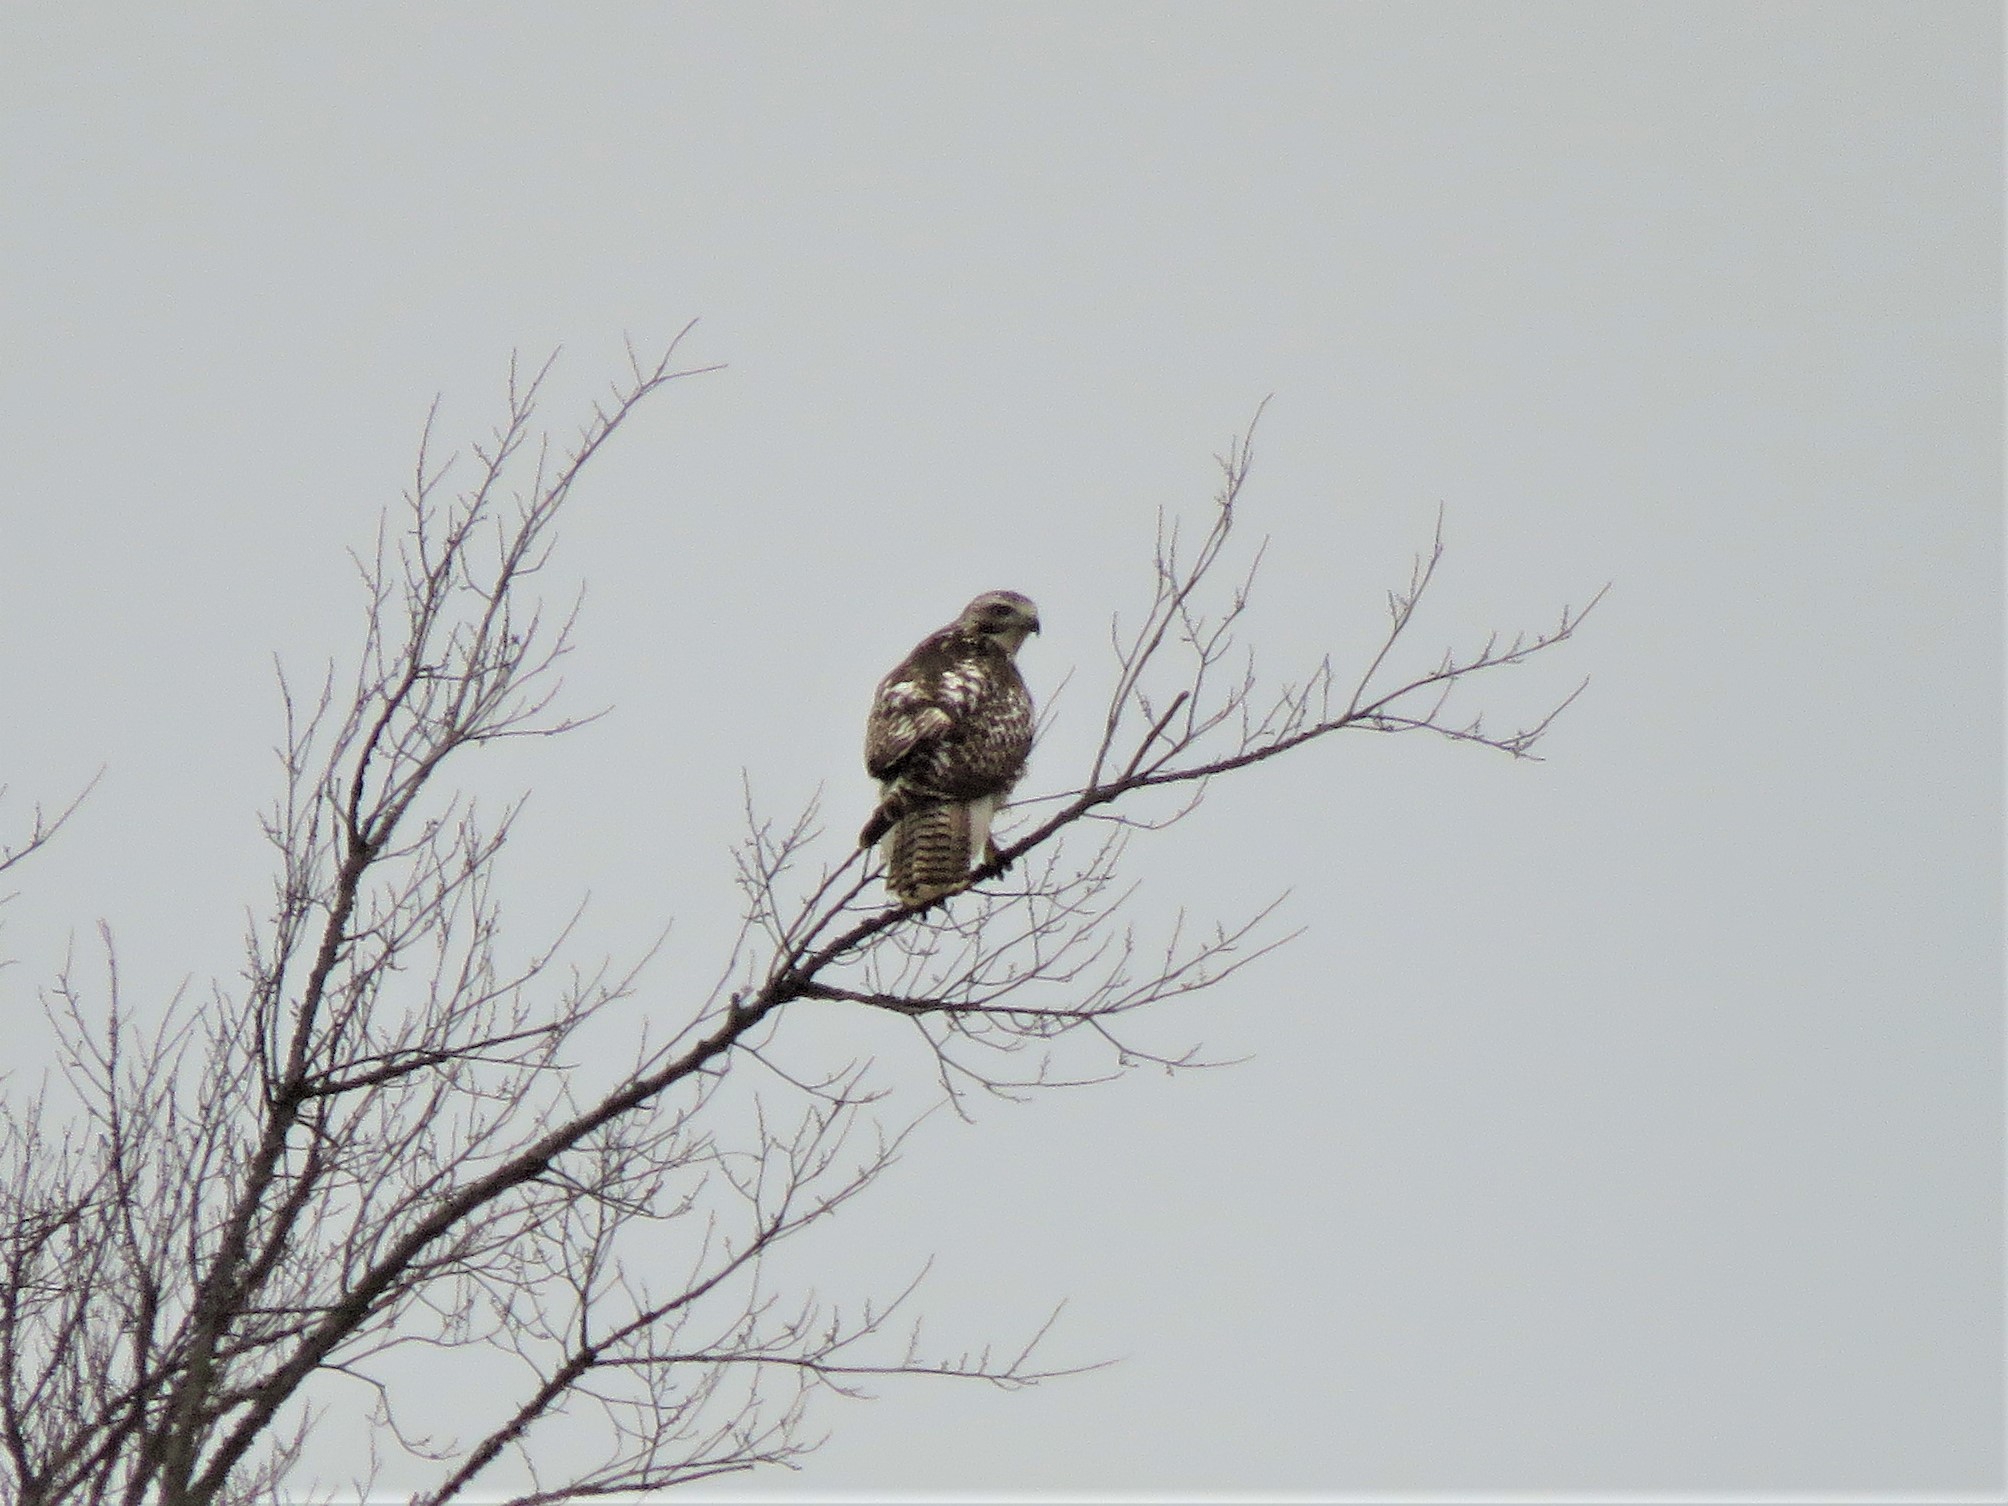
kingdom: Animalia
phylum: Chordata
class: Aves
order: Accipitriformes
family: Accipitridae
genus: Buteo
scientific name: Buteo jamaicensis
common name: Red-tailed hawk
